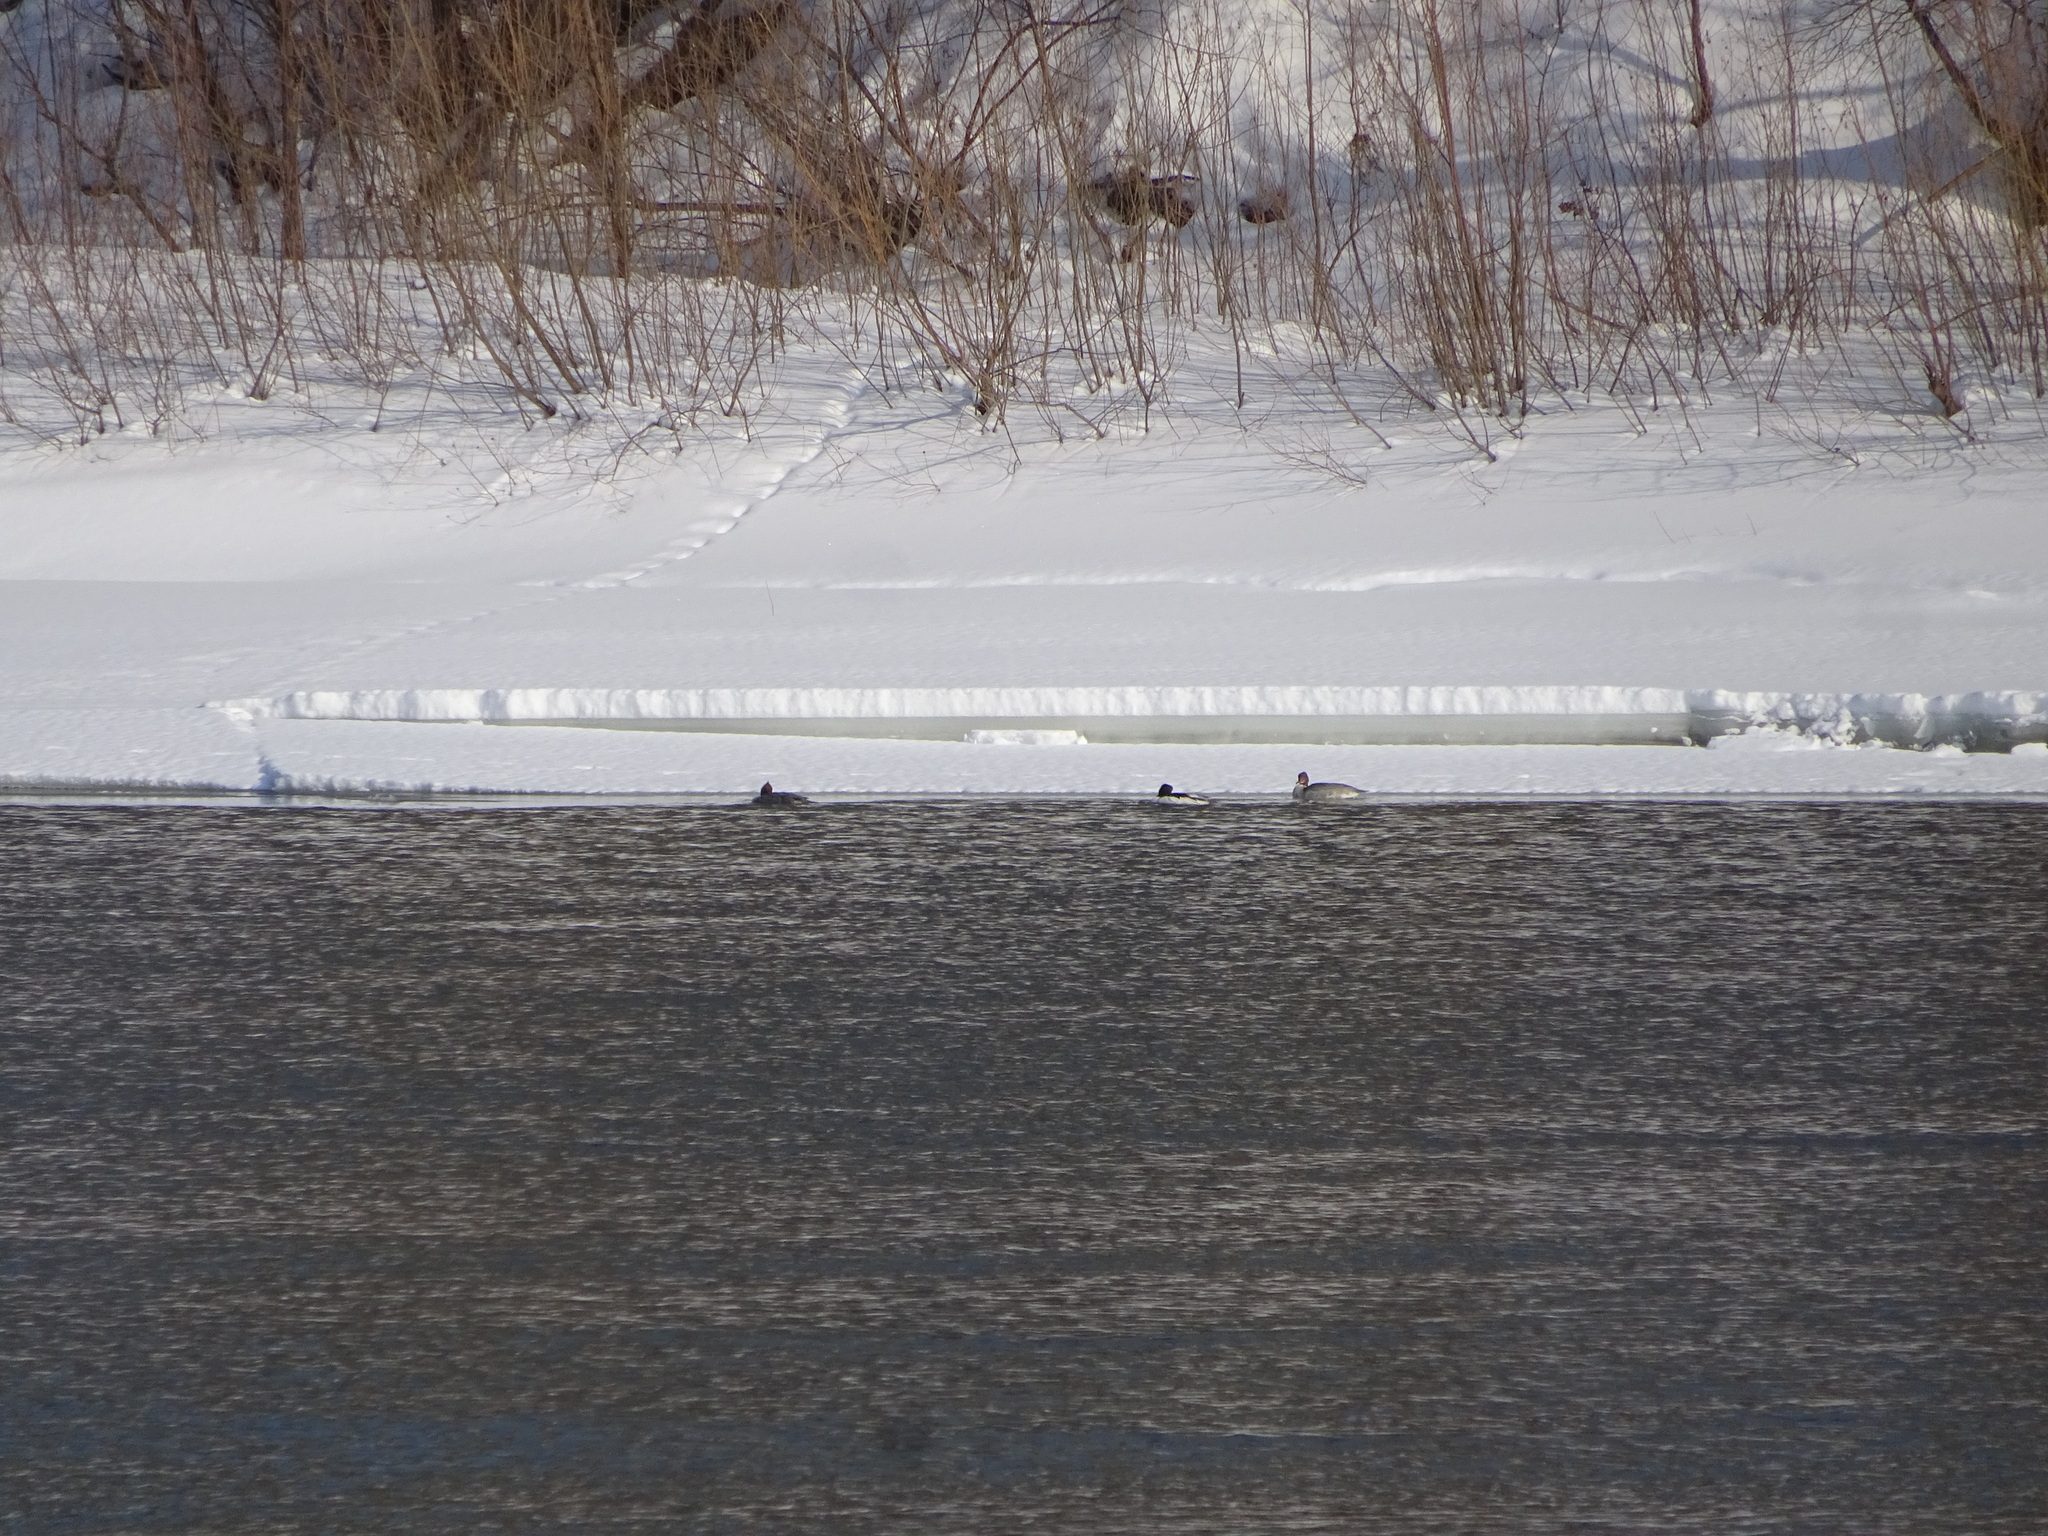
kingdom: Animalia
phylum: Chordata
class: Aves
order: Anseriformes
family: Anatidae
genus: Mergus
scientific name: Mergus merganser
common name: Common merganser
